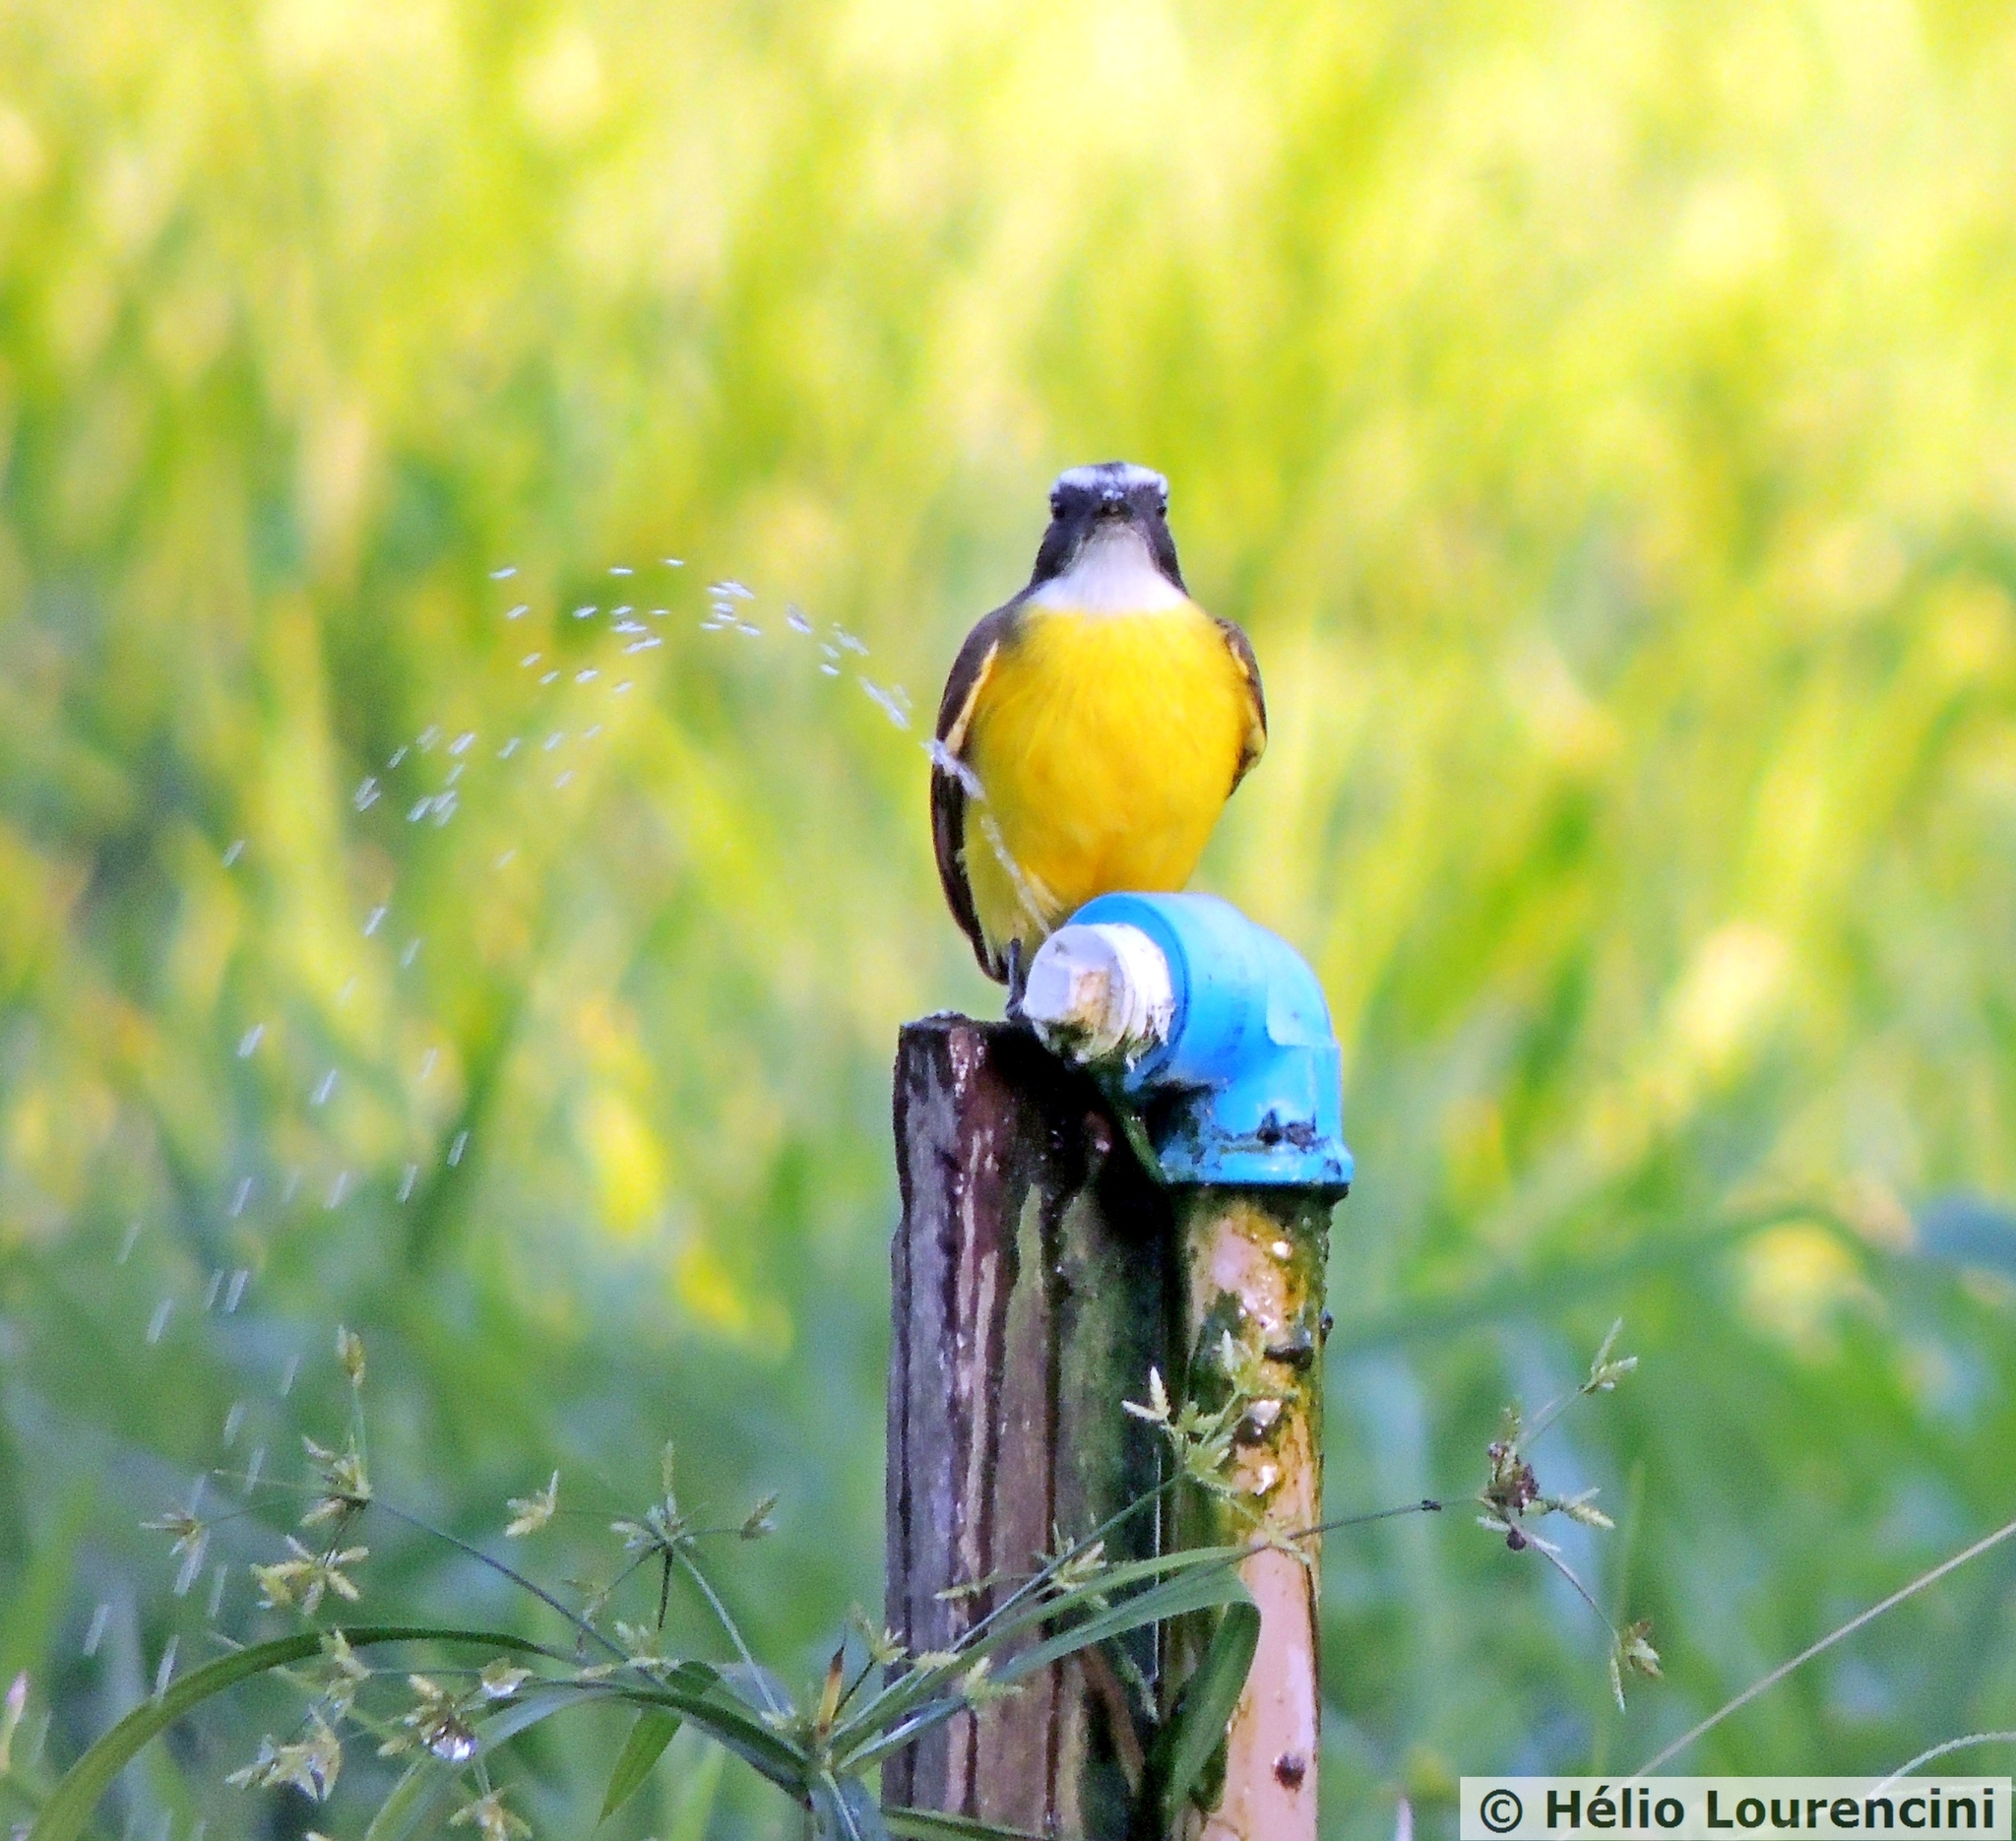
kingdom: Animalia
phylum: Chordata
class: Aves
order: Passeriformes
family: Tyrannidae
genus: Myiozetetes
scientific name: Myiozetetes similis
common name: Social flycatcher
